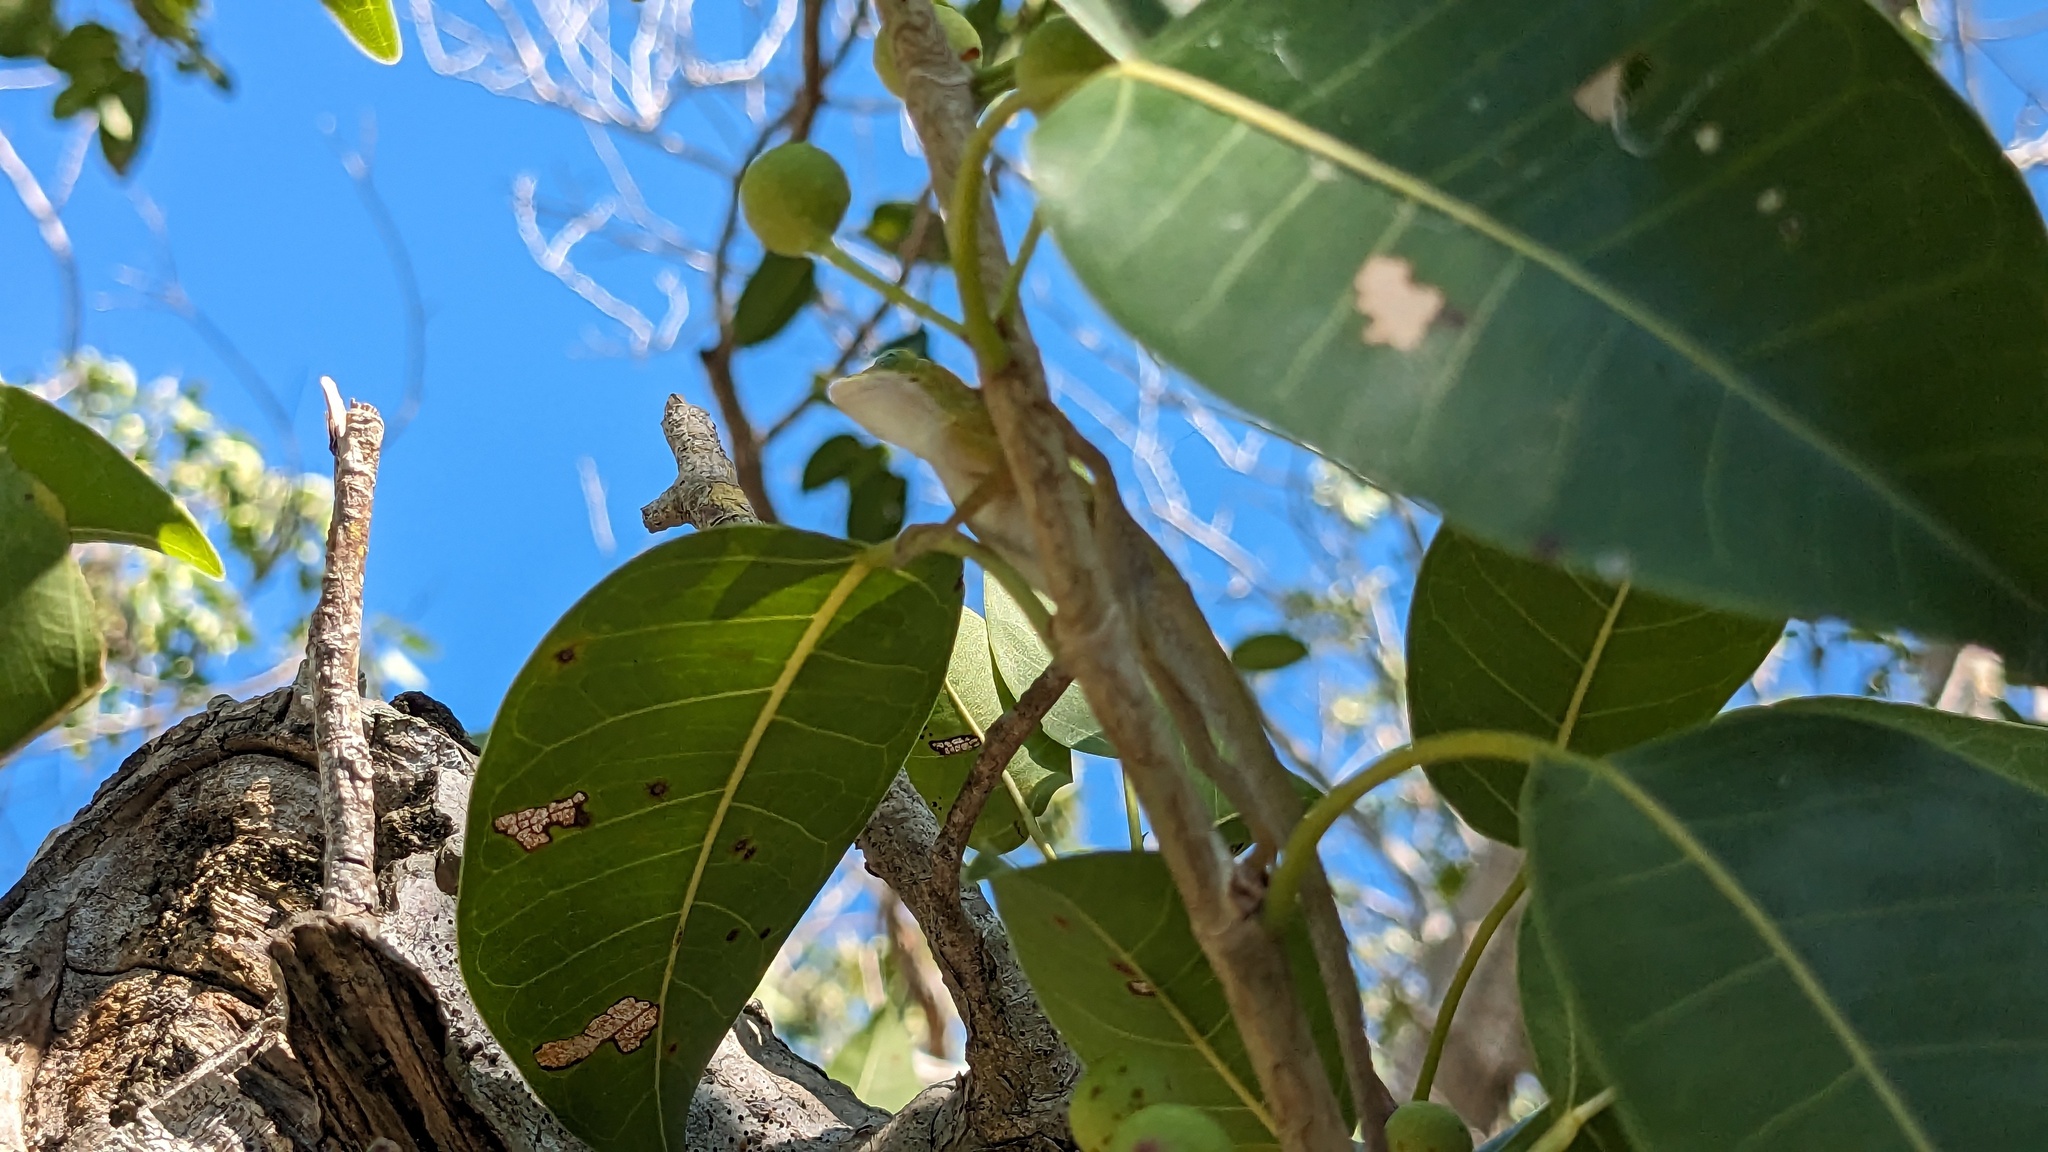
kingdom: Plantae
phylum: Tracheophyta
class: Magnoliopsida
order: Rosales
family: Moraceae
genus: Ficus
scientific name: Ficus citrifolia
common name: Strangler fig
